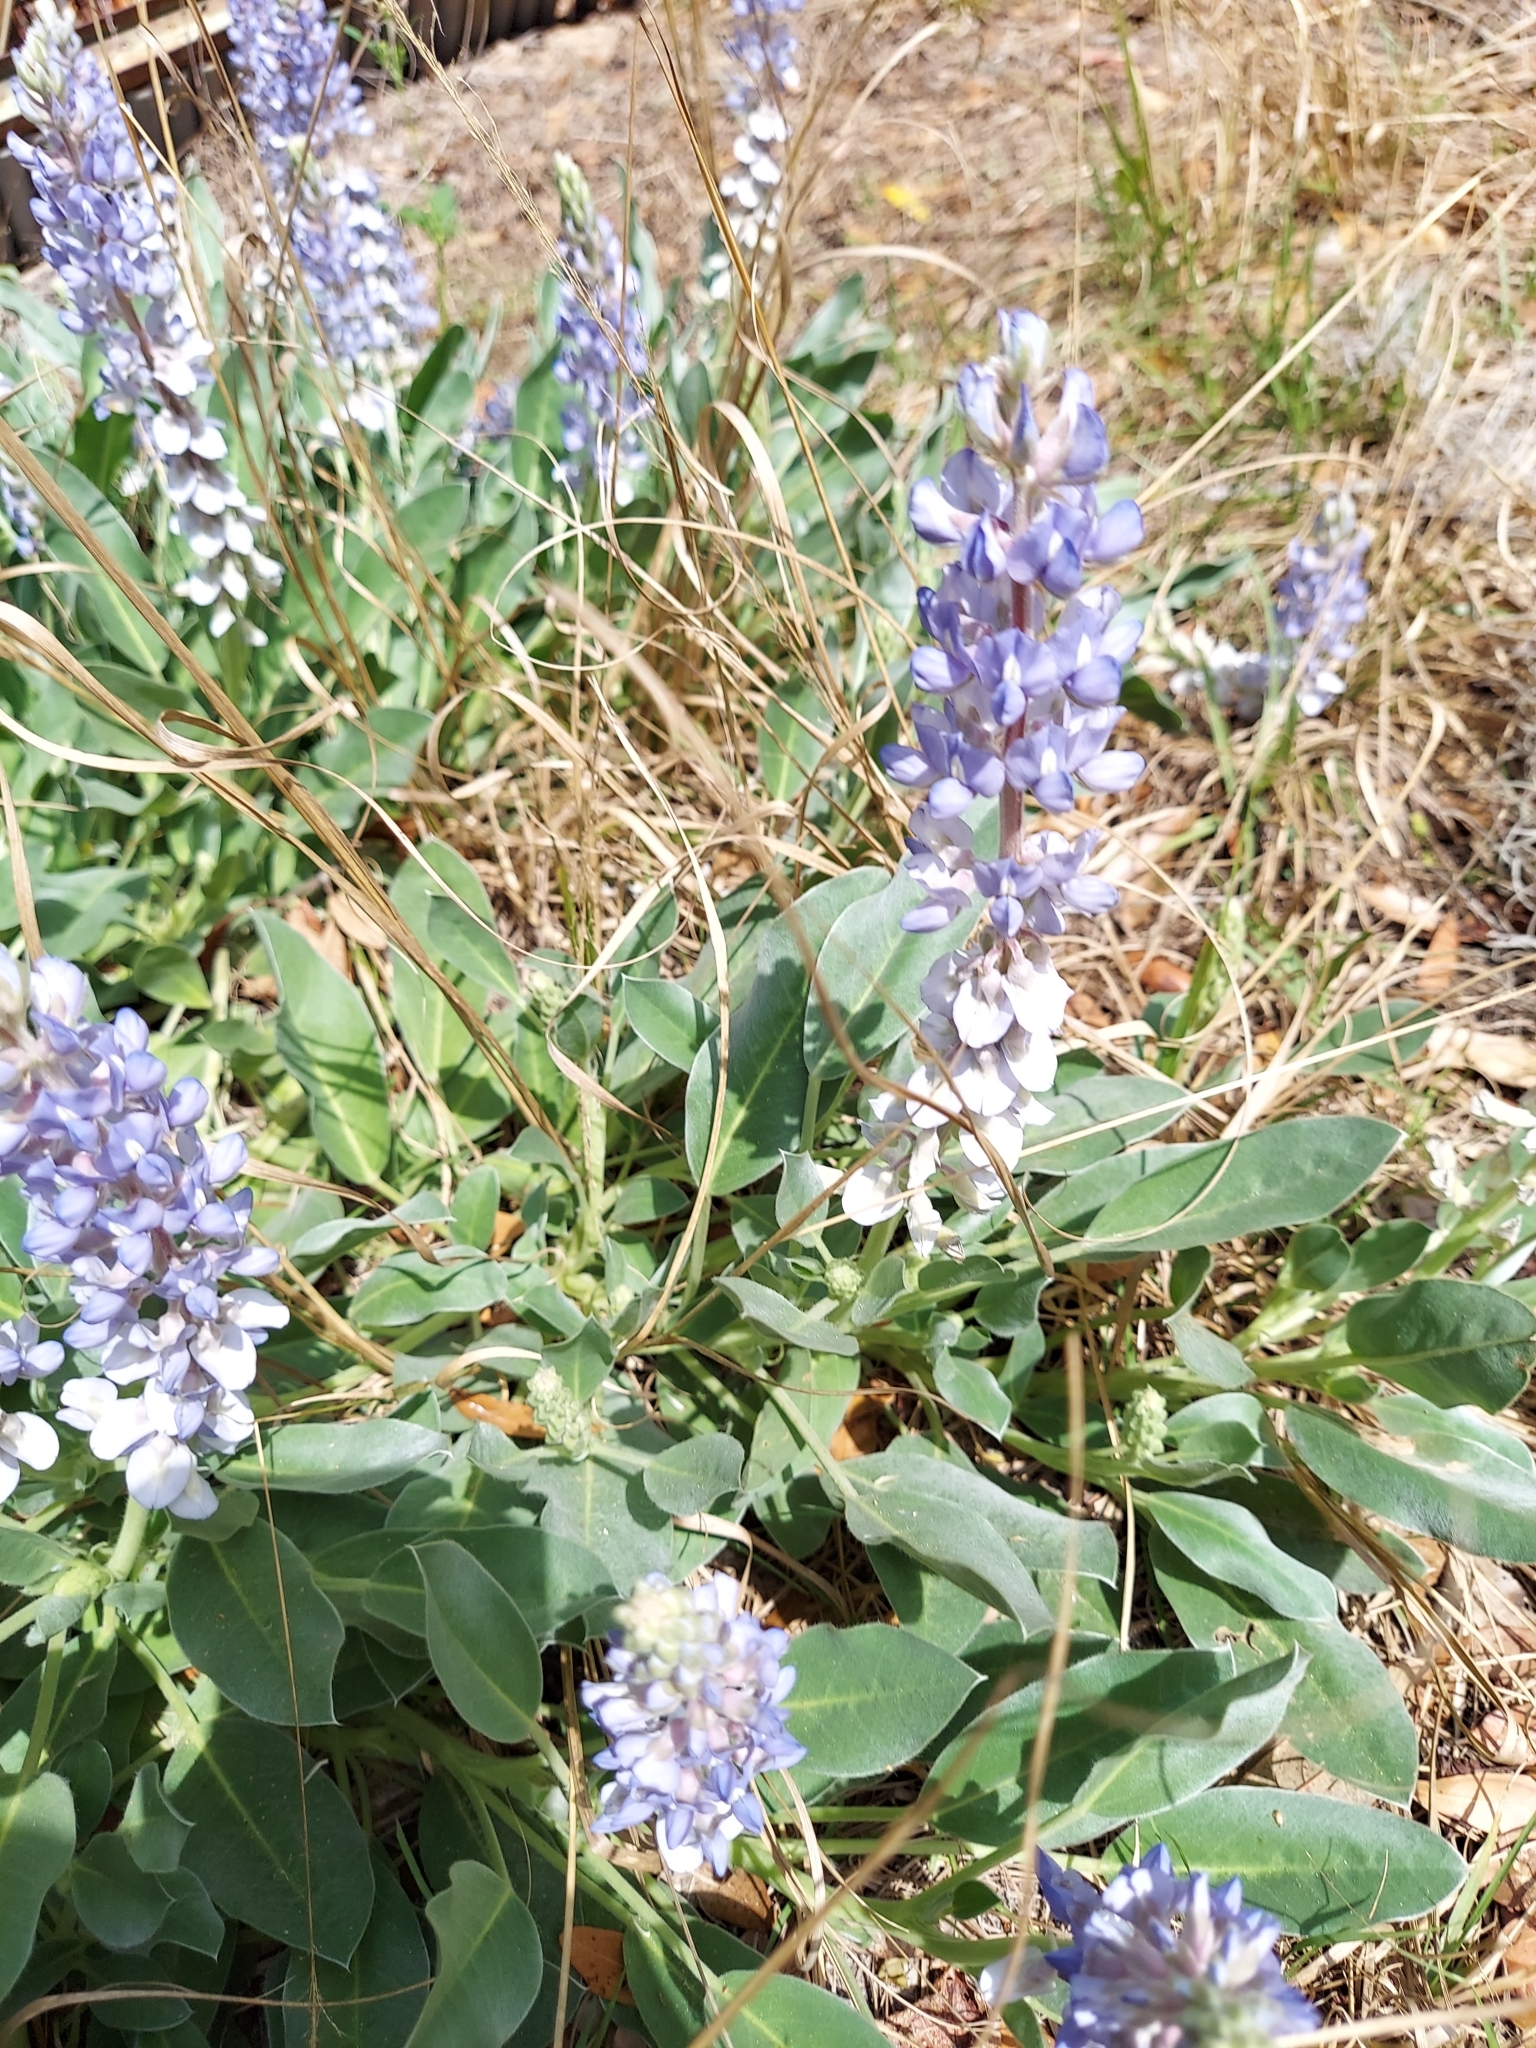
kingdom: Plantae
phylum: Tracheophyta
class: Magnoliopsida
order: Fabales
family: Fabaceae
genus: Lupinus
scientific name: Lupinus
